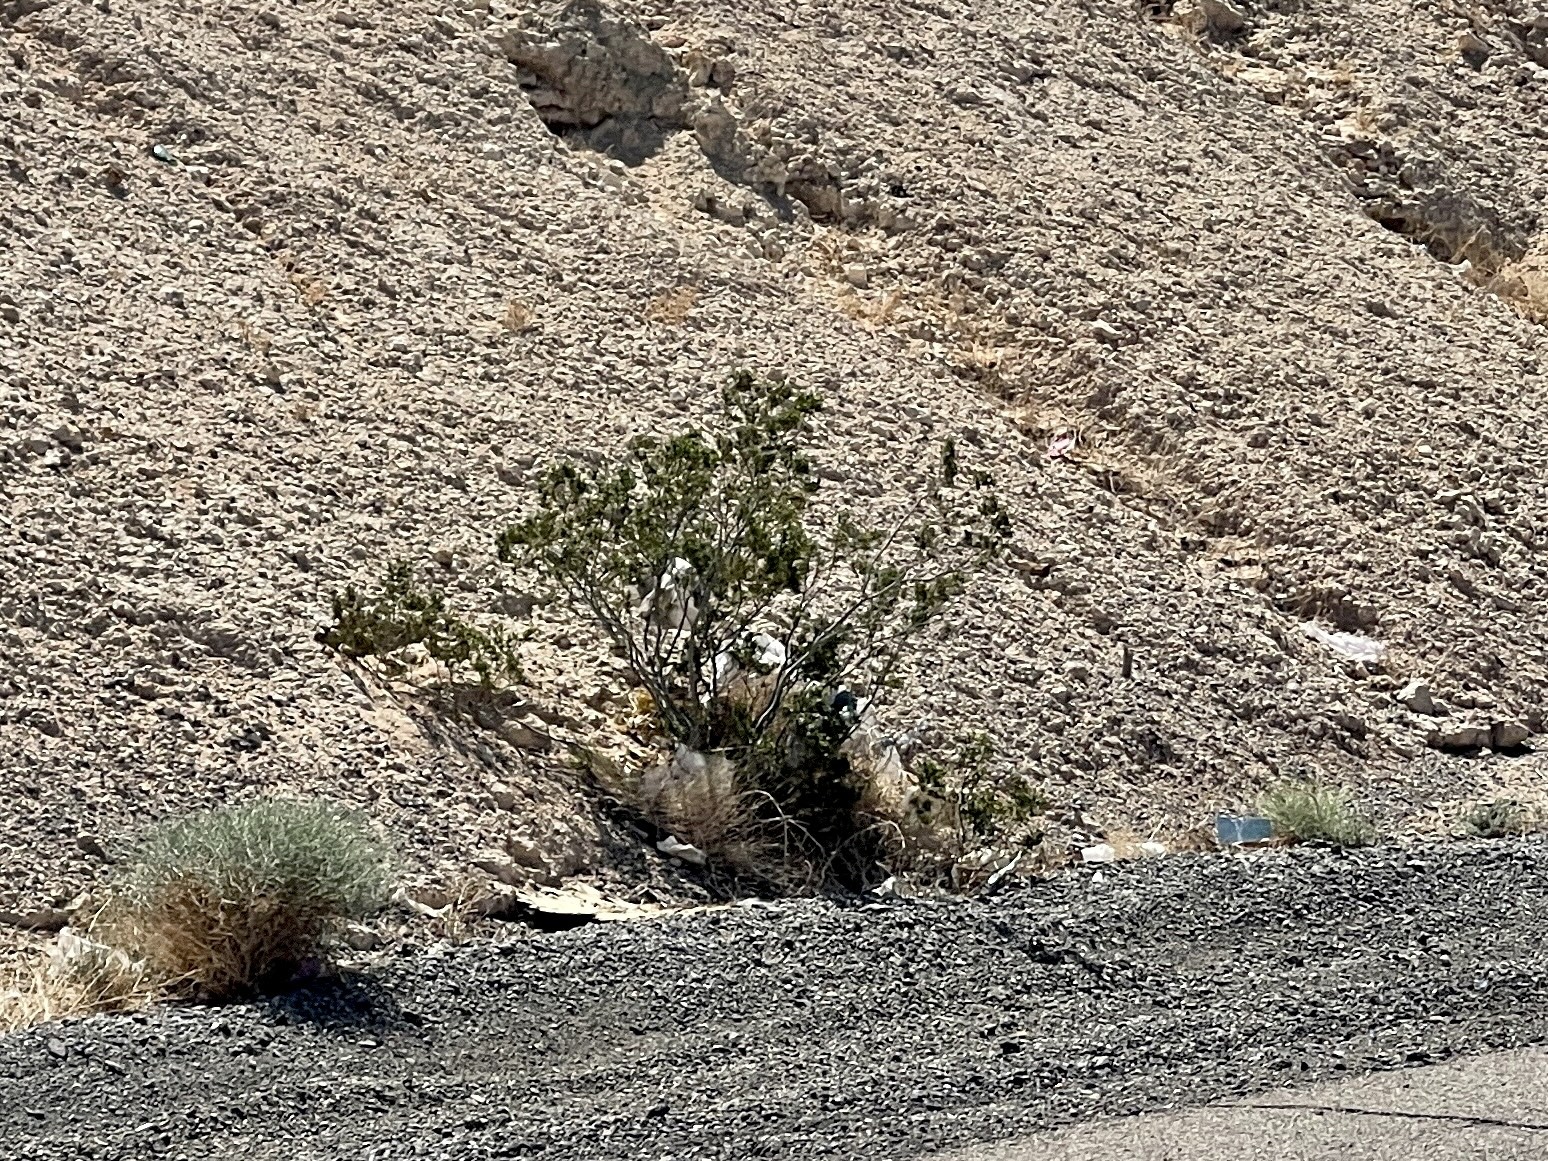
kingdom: Plantae
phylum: Tracheophyta
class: Magnoliopsida
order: Zygophyllales
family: Zygophyllaceae
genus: Larrea
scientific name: Larrea tridentata
